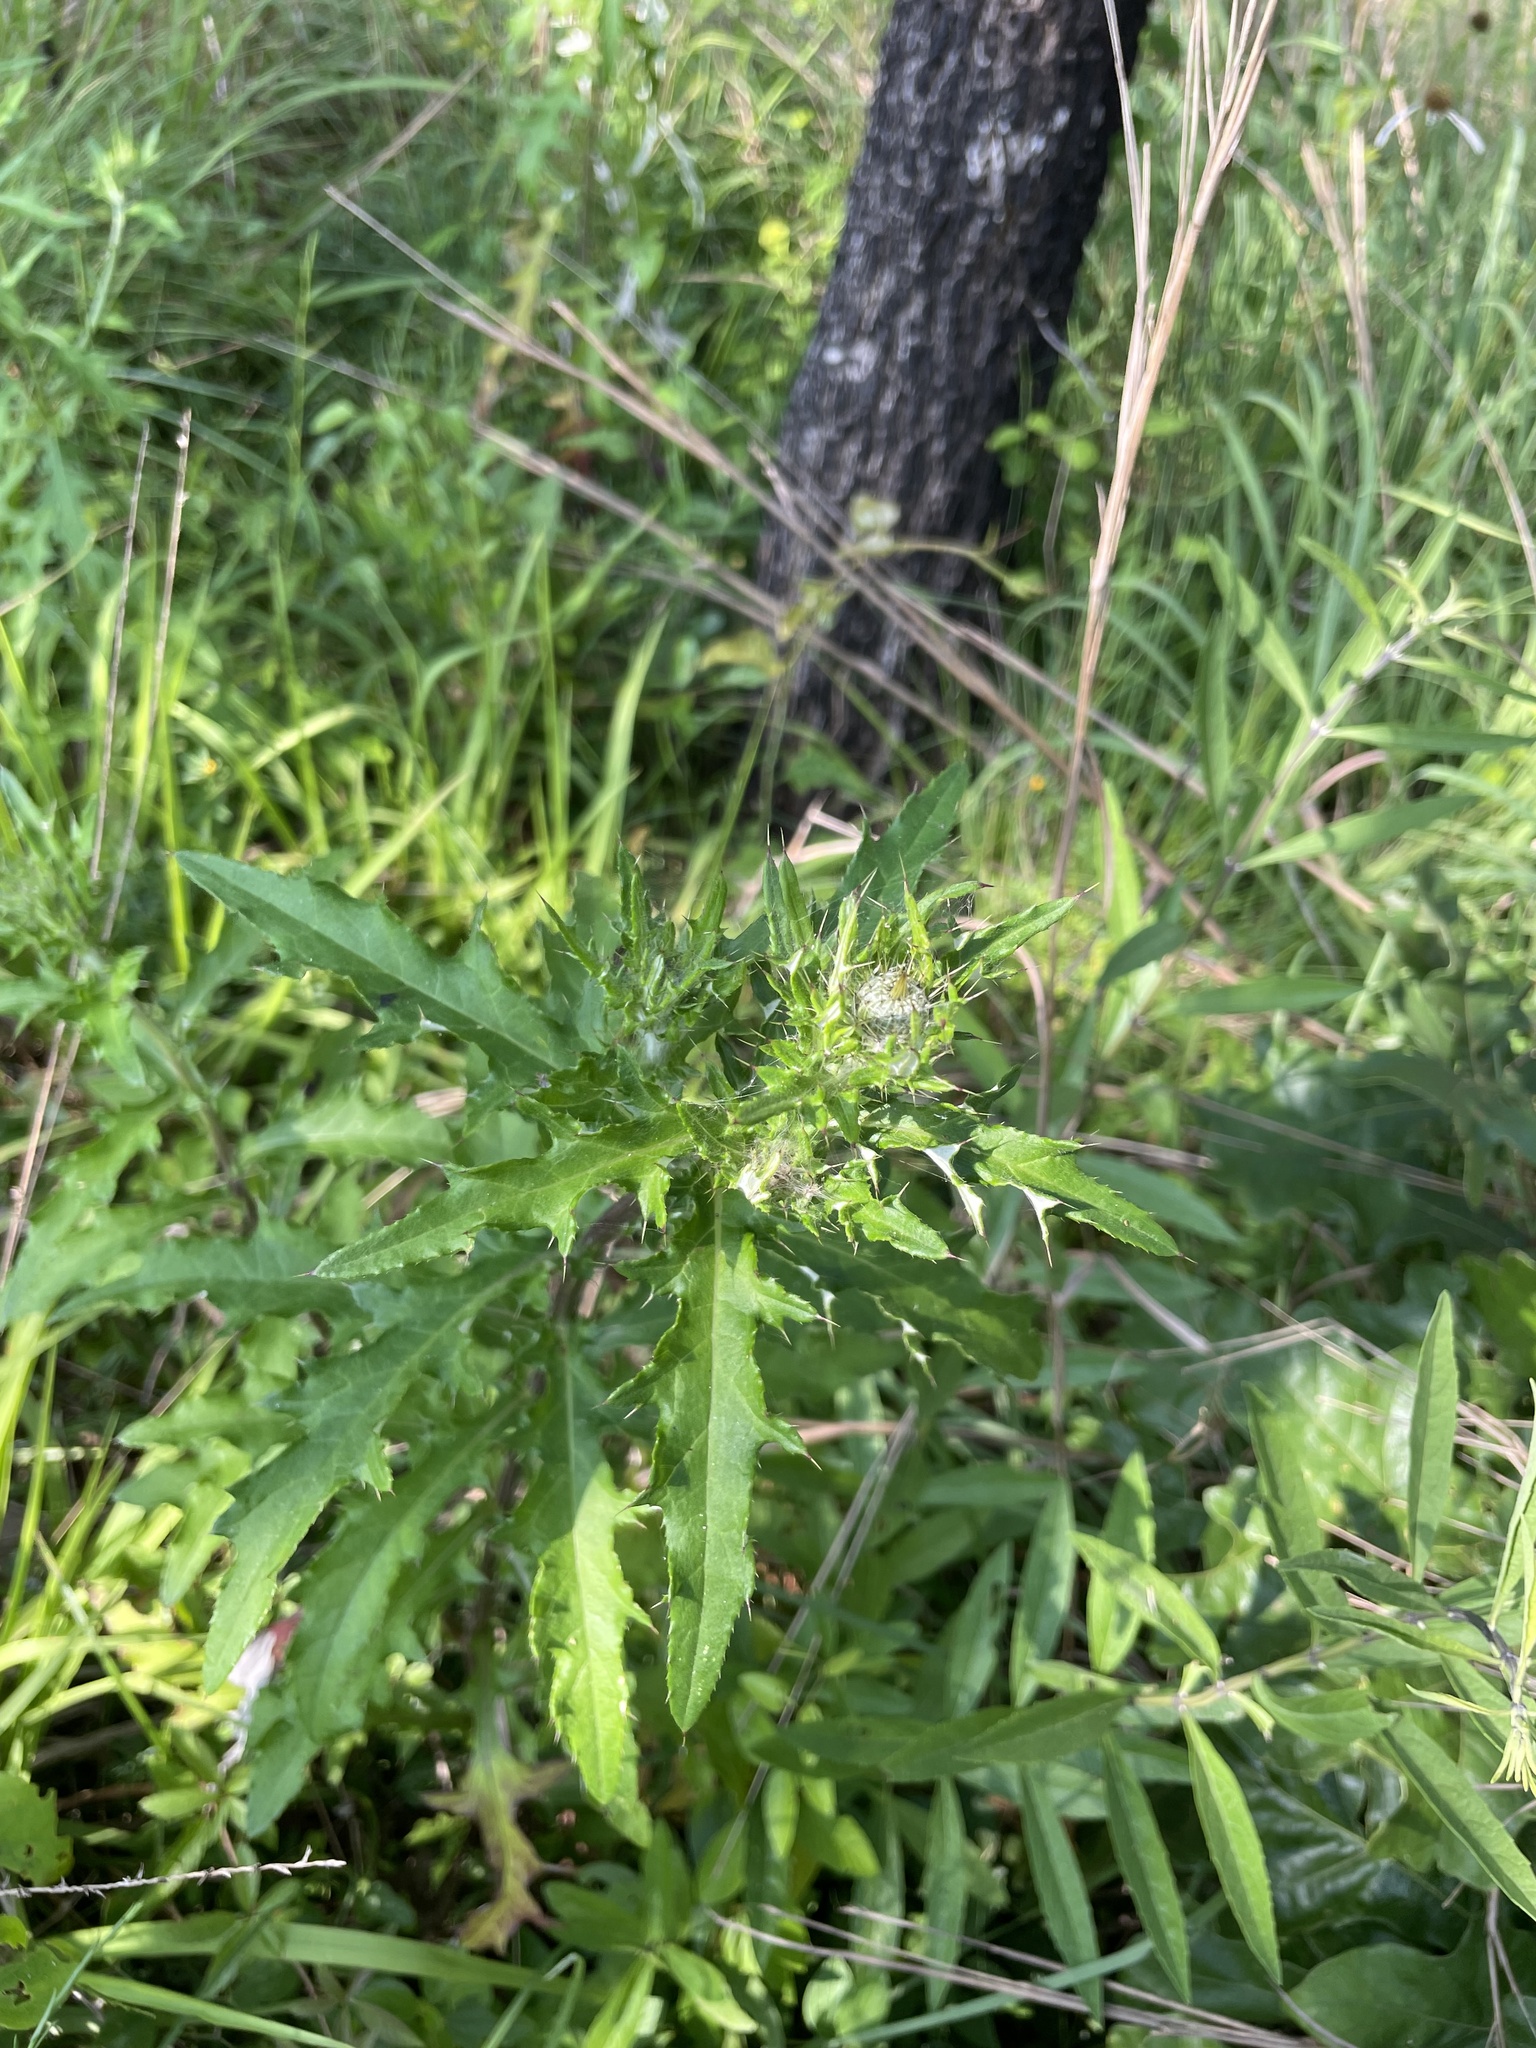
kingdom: Plantae
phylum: Tracheophyta
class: Magnoliopsida
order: Asterales
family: Asteraceae
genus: Cirsium
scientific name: Cirsium engelmannii
